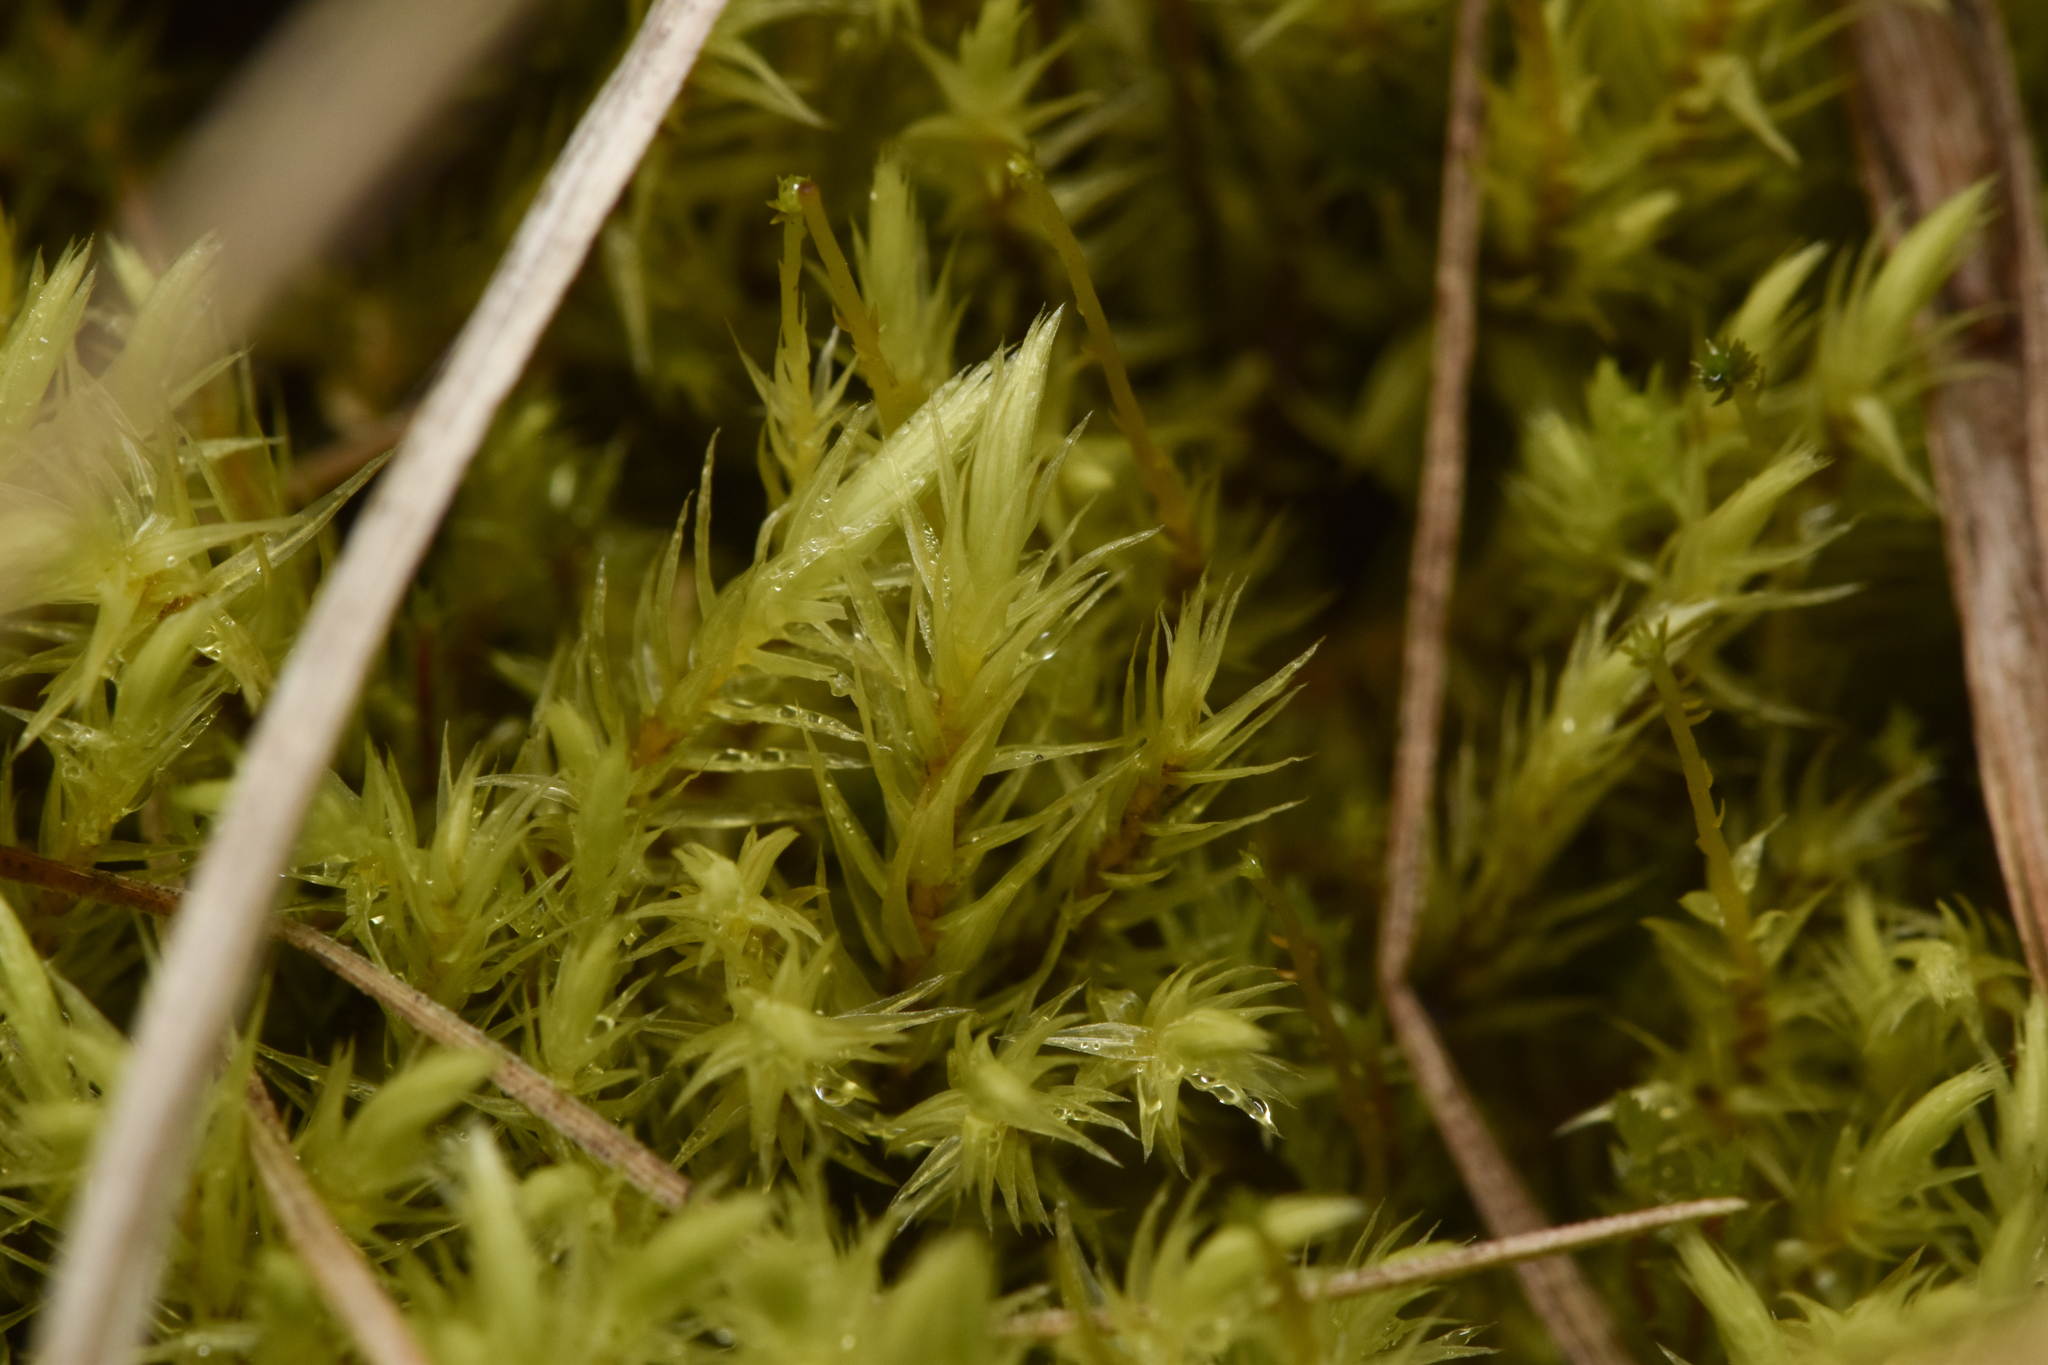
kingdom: Plantae
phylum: Bryophyta
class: Bryopsida
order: Aulacomniales
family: Aulacomniaceae
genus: Aulacomnium
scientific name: Aulacomnium palustre
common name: Bog groove-moss
